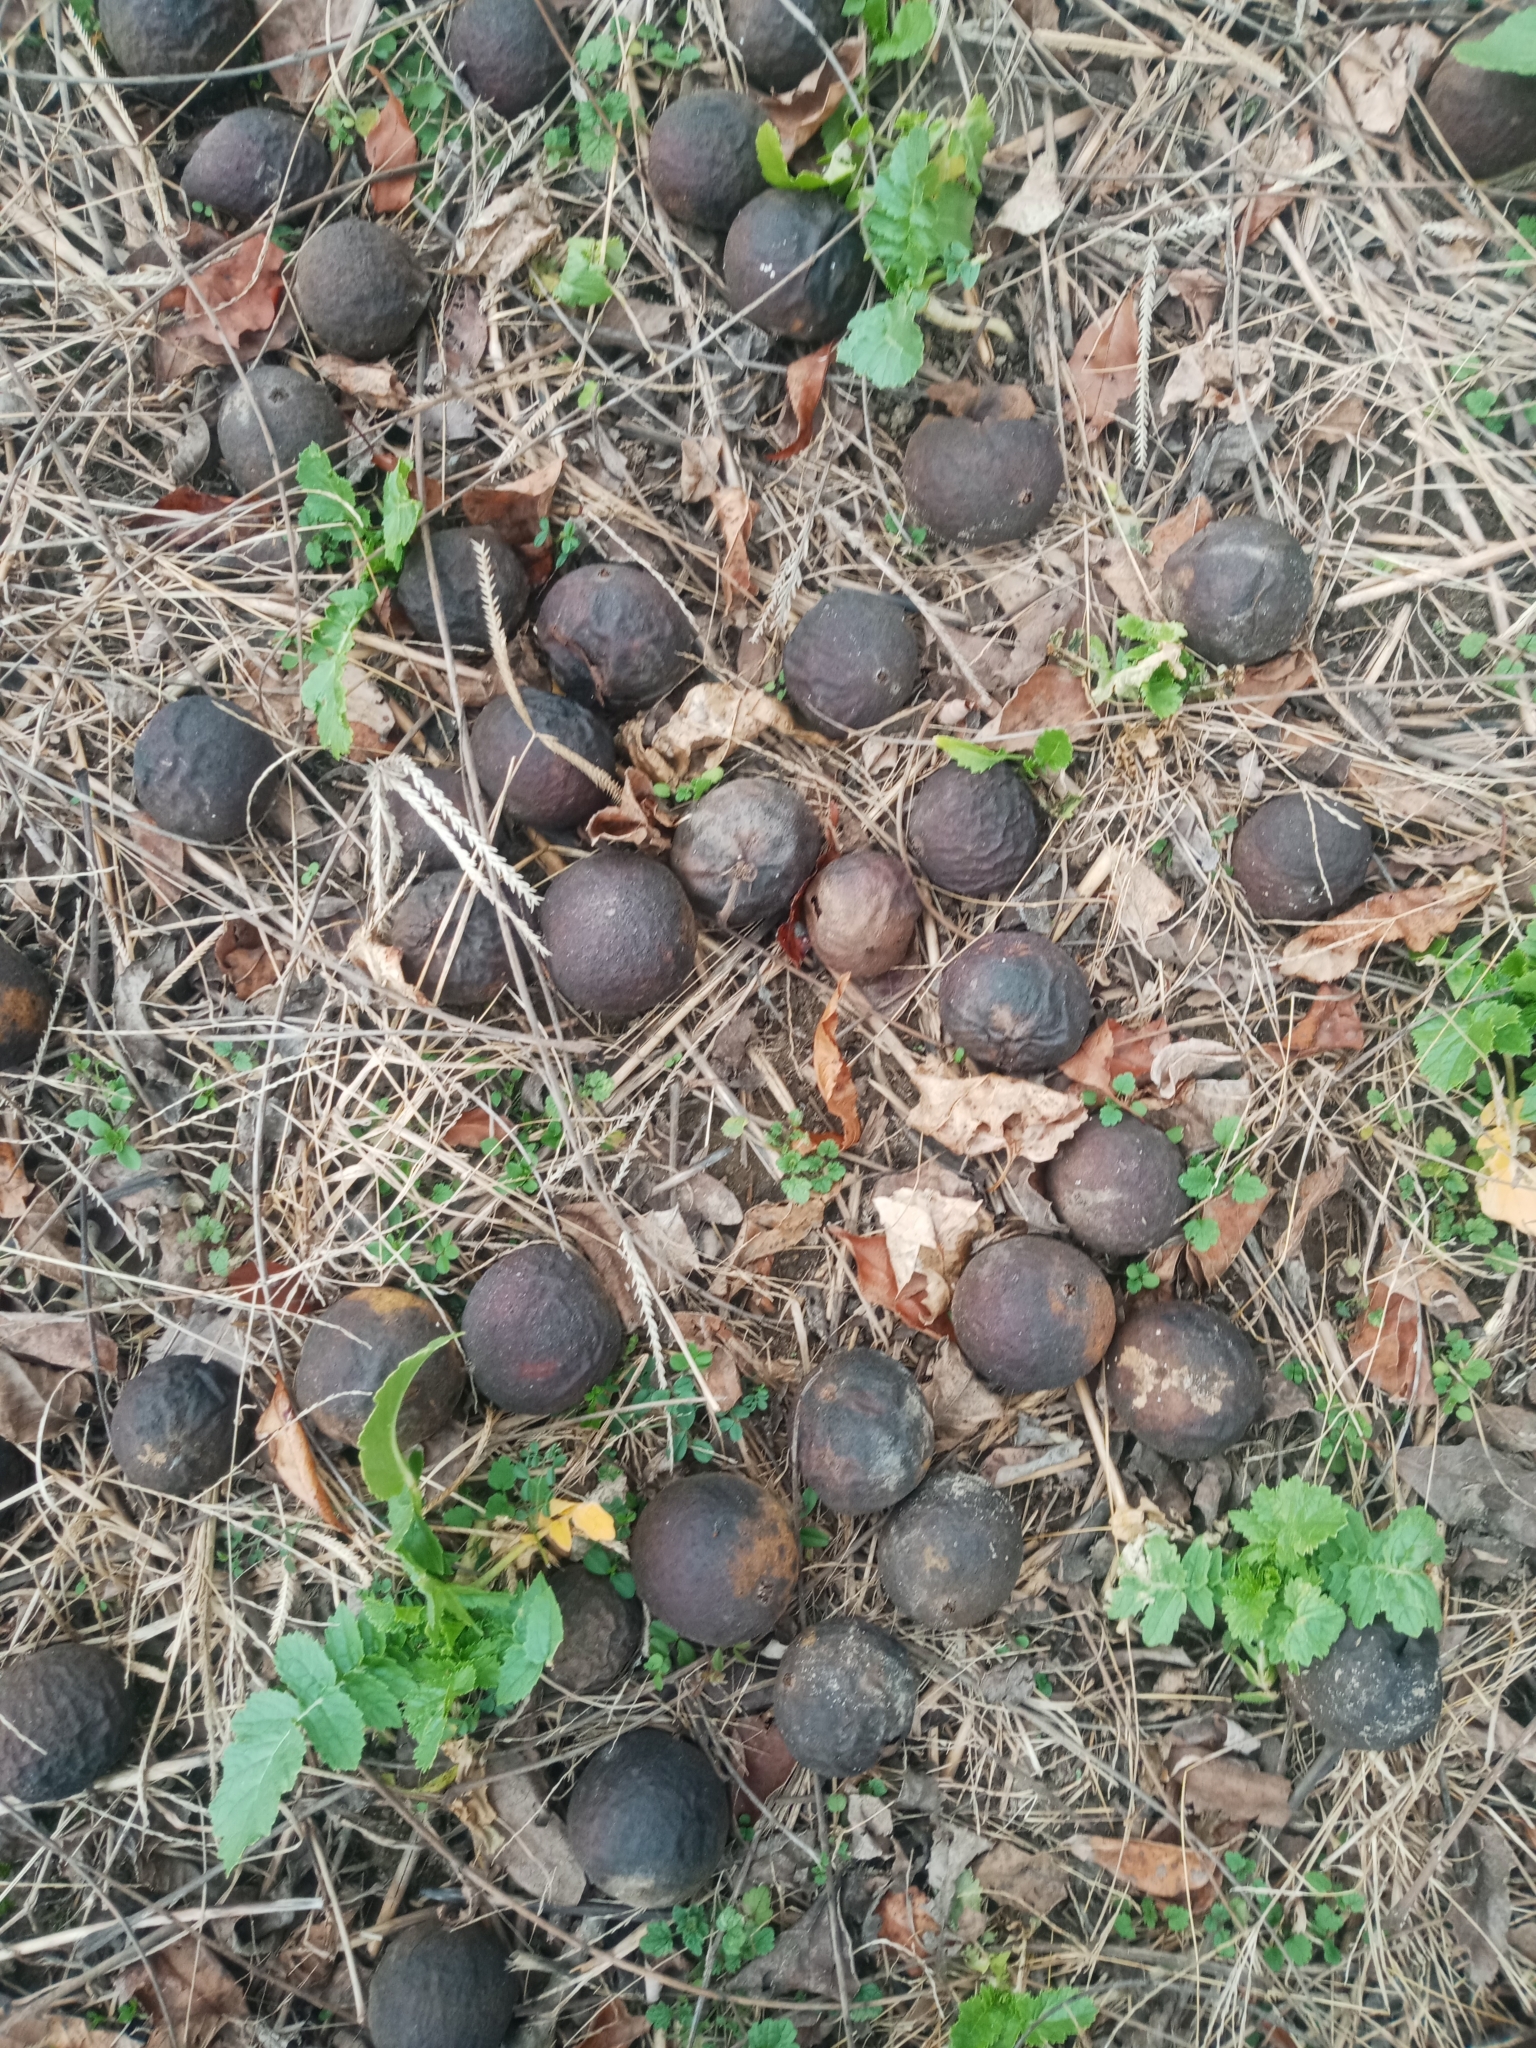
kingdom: Plantae
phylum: Tracheophyta
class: Magnoliopsida
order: Fagales
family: Juglandaceae
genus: Juglans
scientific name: Juglans nigra
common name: Black walnut
